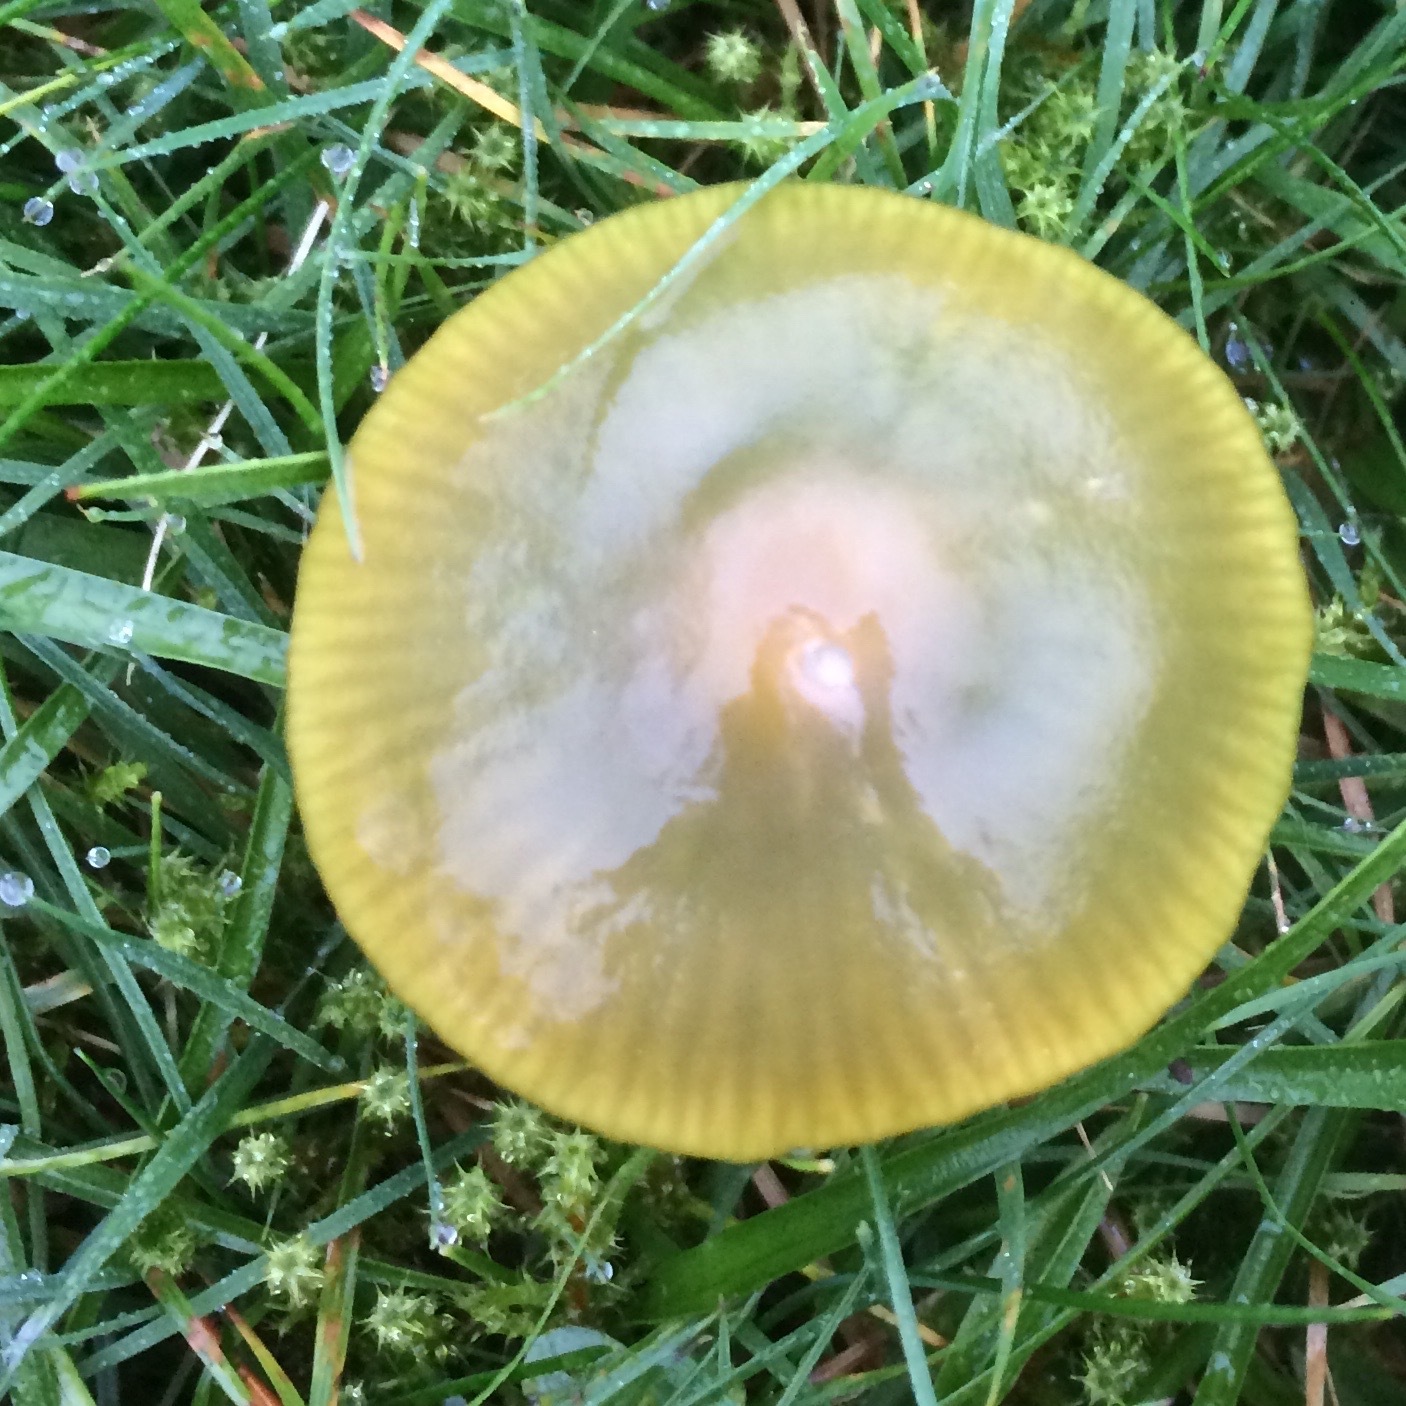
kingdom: Fungi
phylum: Basidiomycota
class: Agaricomycetes
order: Agaricales
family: Hygrophoraceae
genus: Gliophorus
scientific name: Gliophorus psittacinus
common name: Parrot wax-cap
